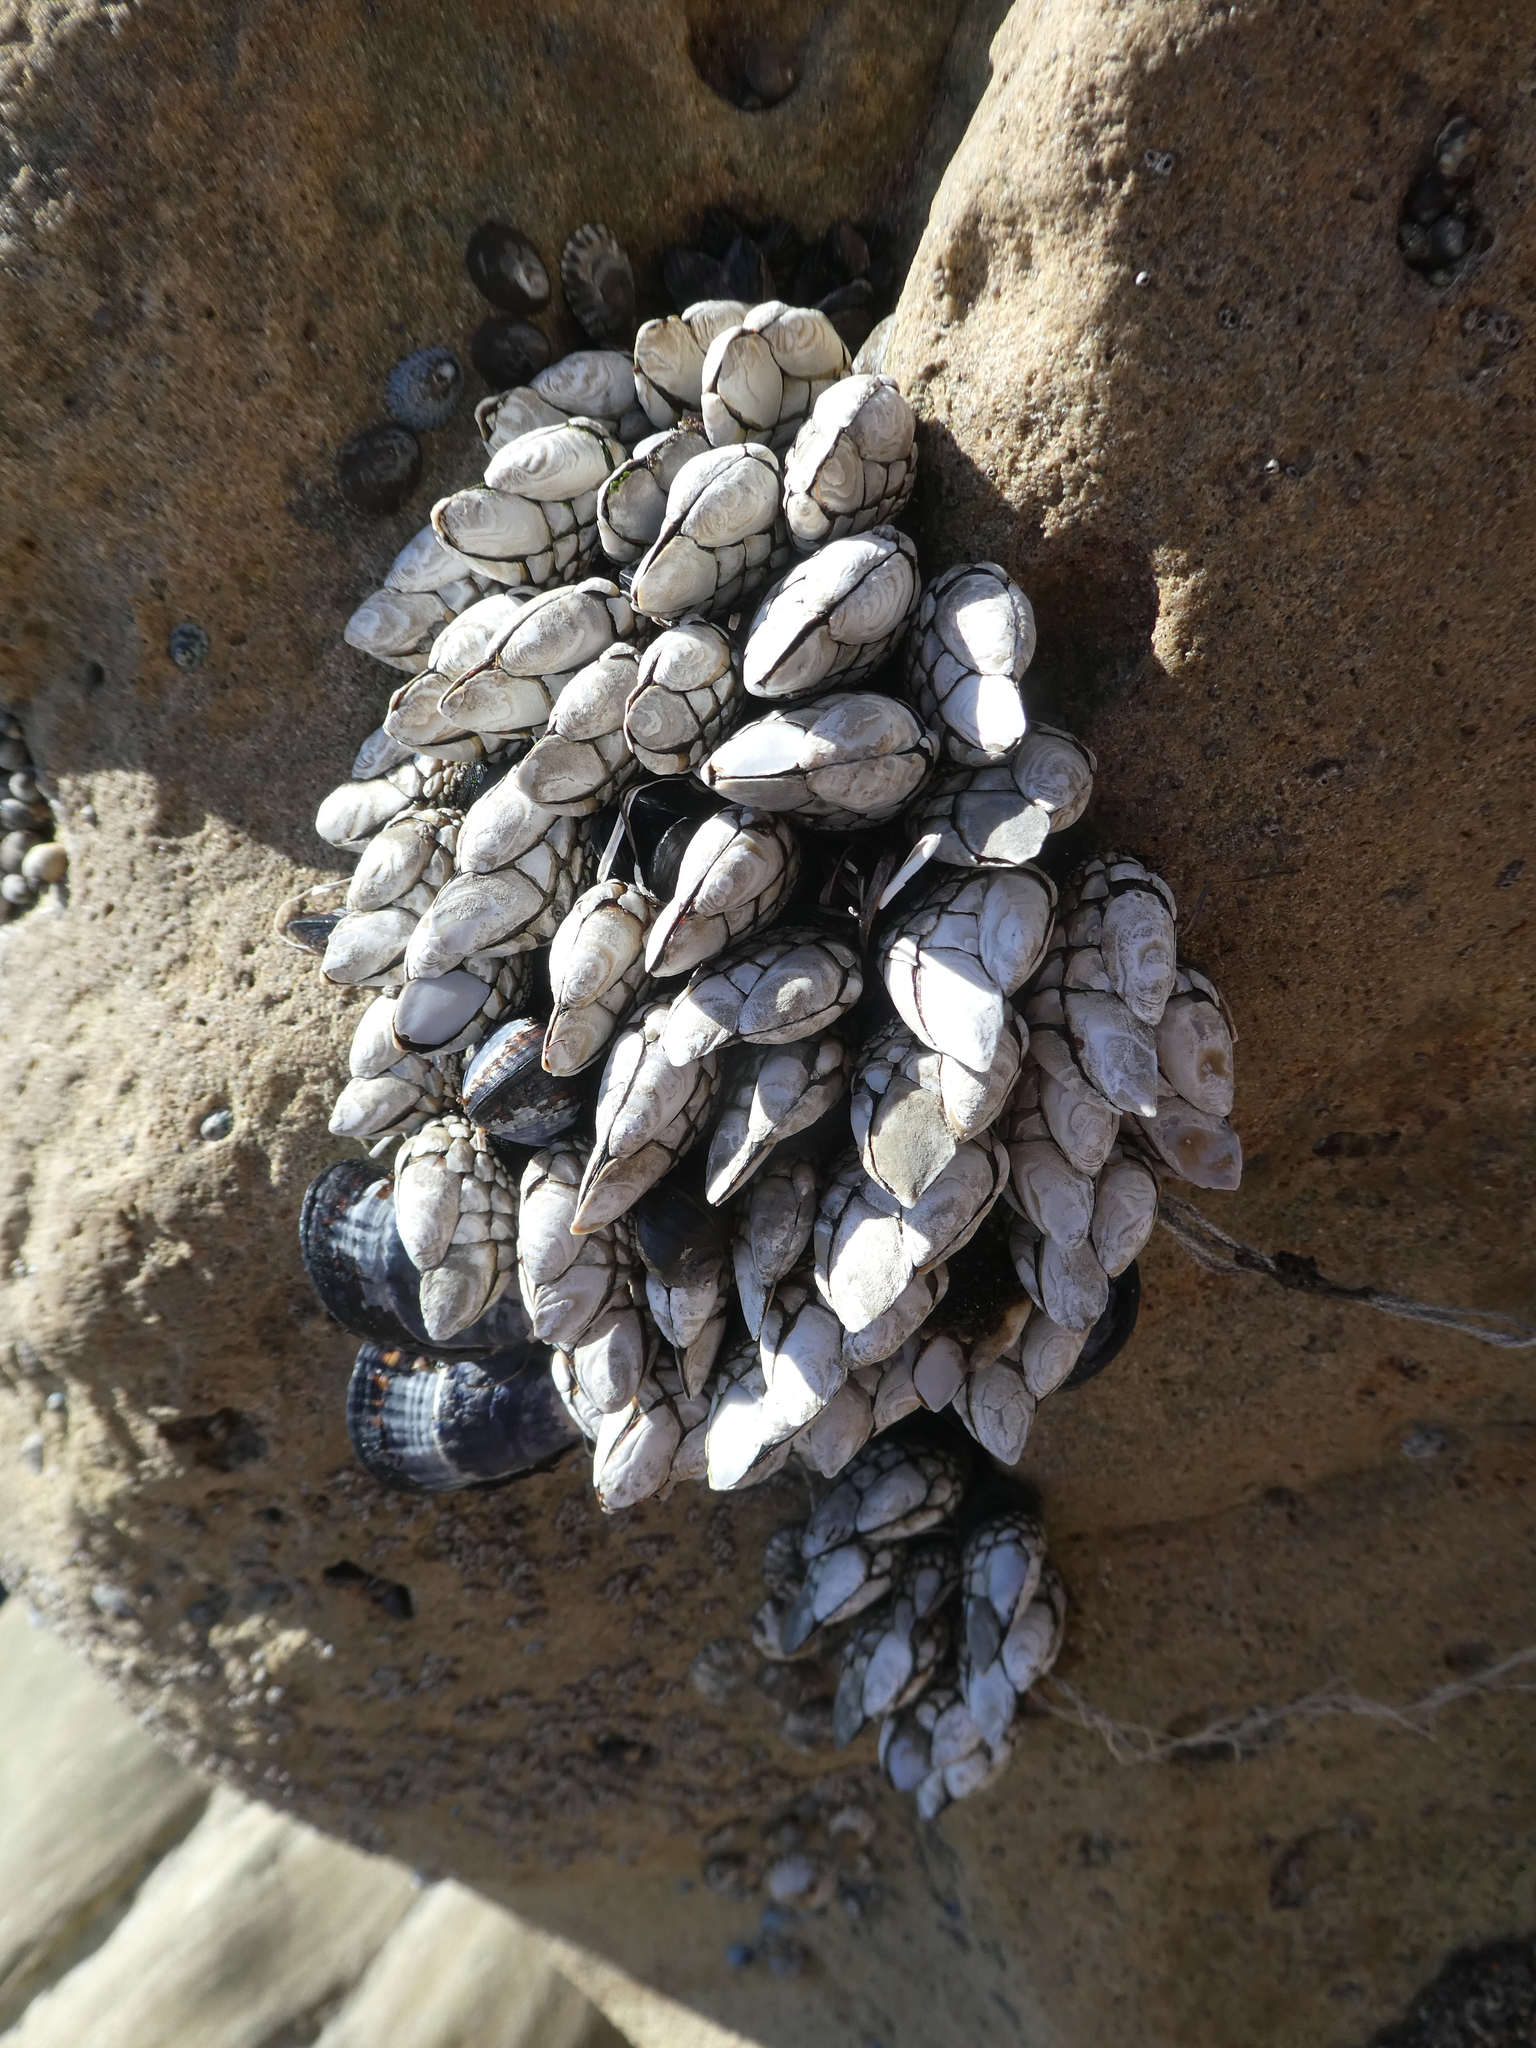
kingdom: Animalia
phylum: Arthropoda
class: Maxillopoda
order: Pedunculata
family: Pollicipedidae
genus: Pollicipes
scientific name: Pollicipes polymerus
